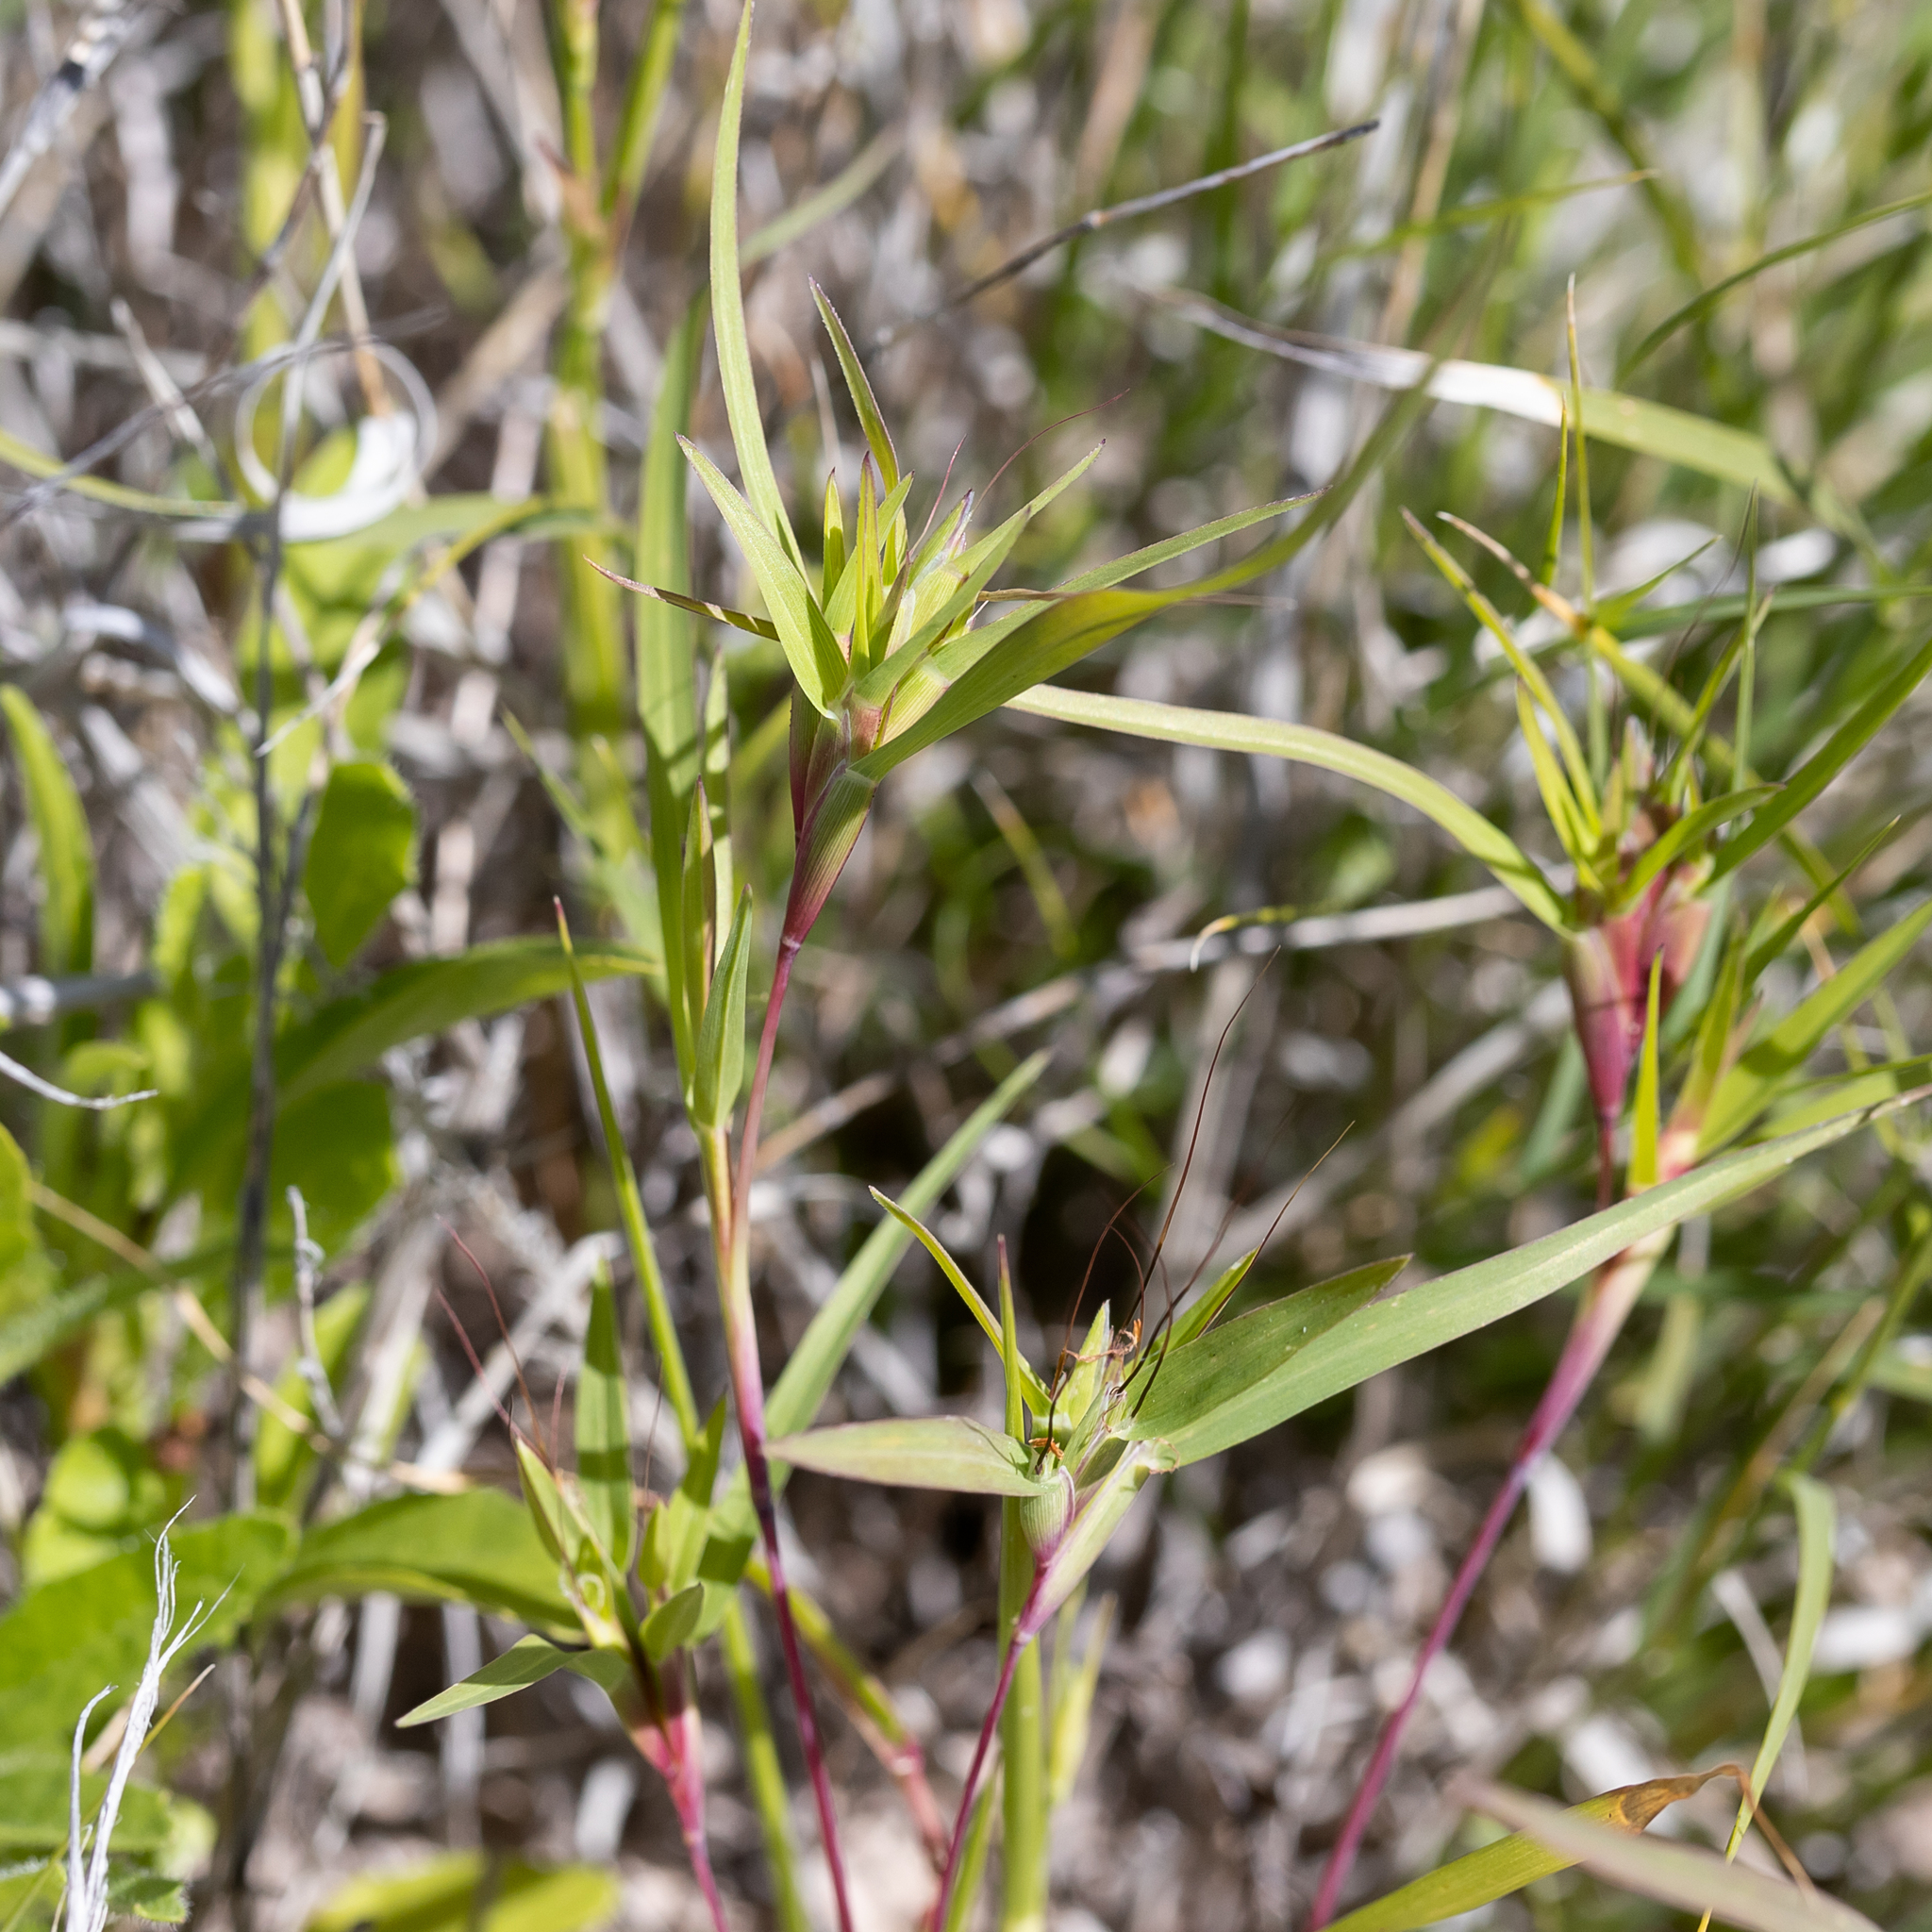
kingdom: Plantae
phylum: Tracheophyta
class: Liliopsida
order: Poales
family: Poaceae
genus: Iseilema
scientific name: Iseilema vaginiflorum
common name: Red flinders grass
